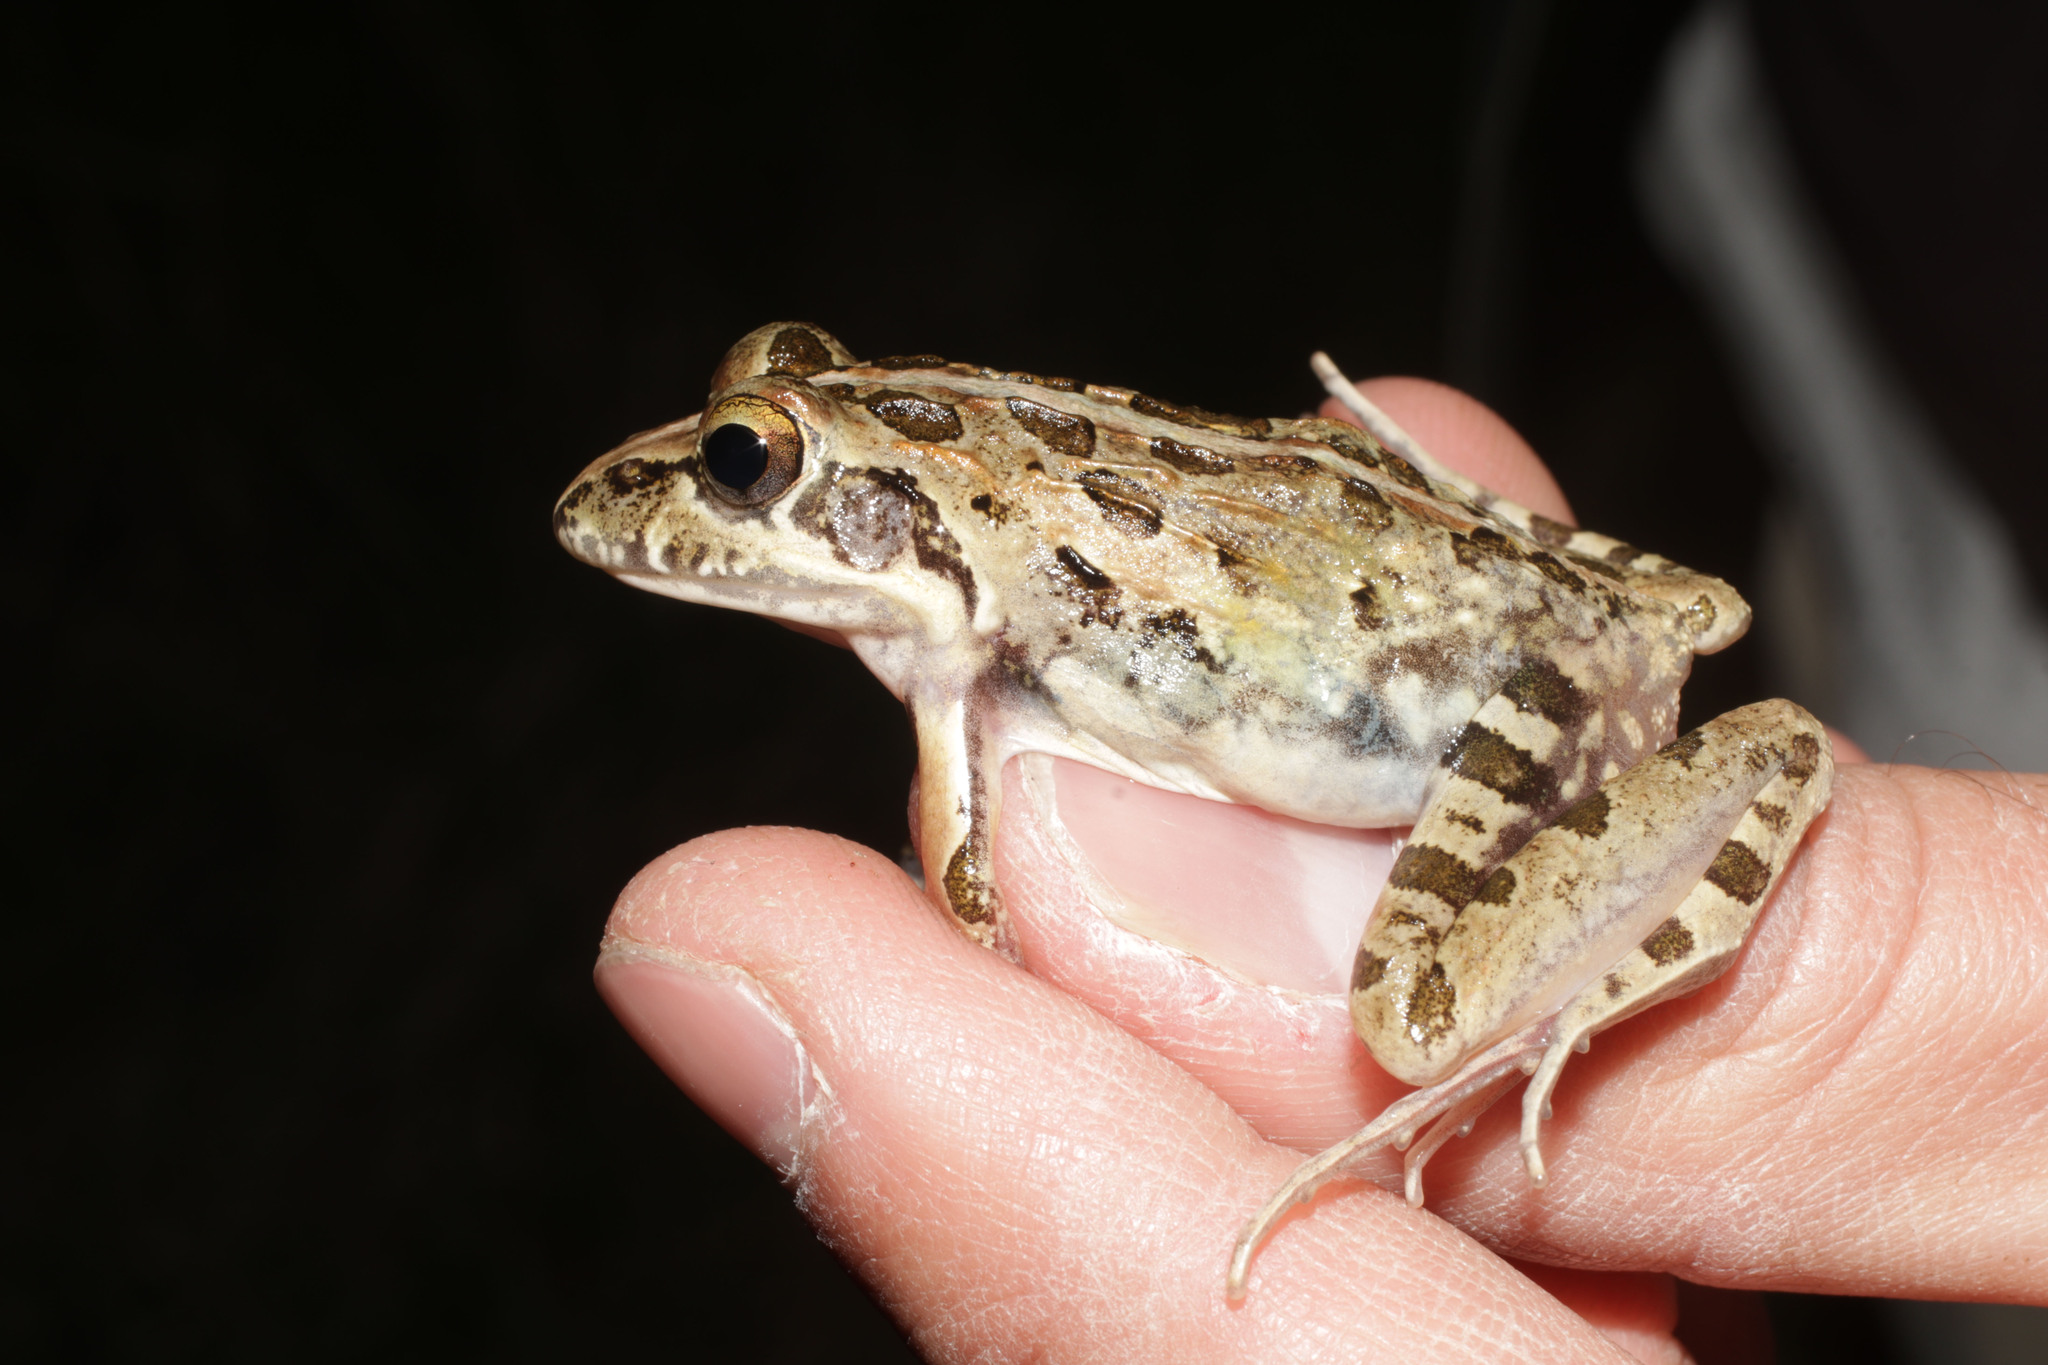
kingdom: Animalia
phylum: Chordata
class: Amphibia
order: Anura
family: Pyxicephalidae
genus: Strongylopus
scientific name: Strongylopus grayii
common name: Gray's stream frog
